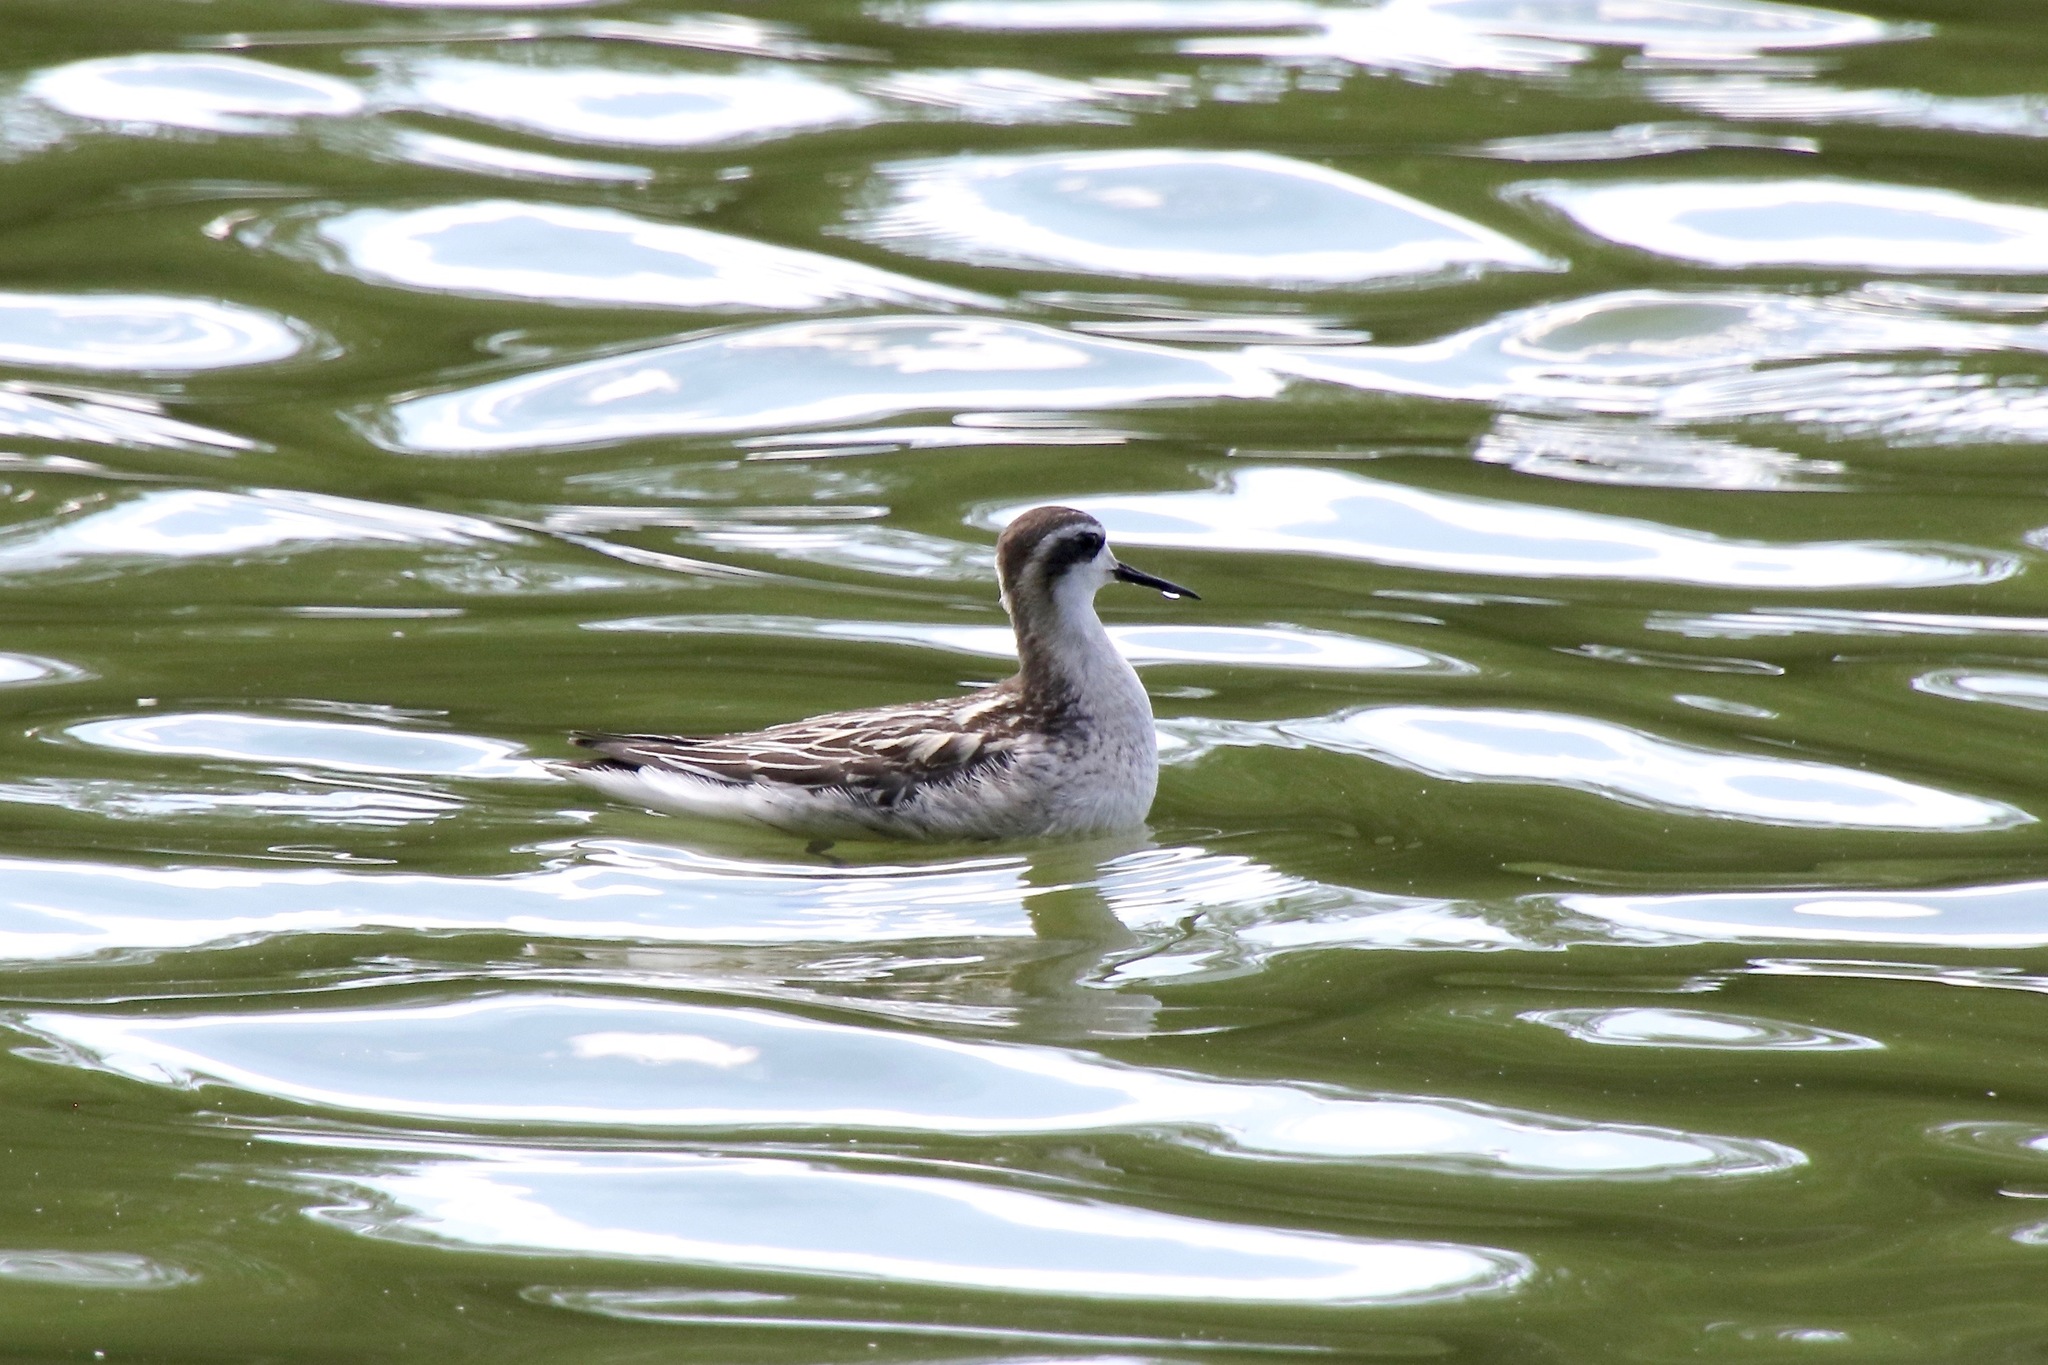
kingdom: Animalia
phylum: Chordata
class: Aves
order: Charadriiformes
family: Scolopacidae
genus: Phalaropus
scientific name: Phalaropus lobatus
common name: Red-necked phalarope
